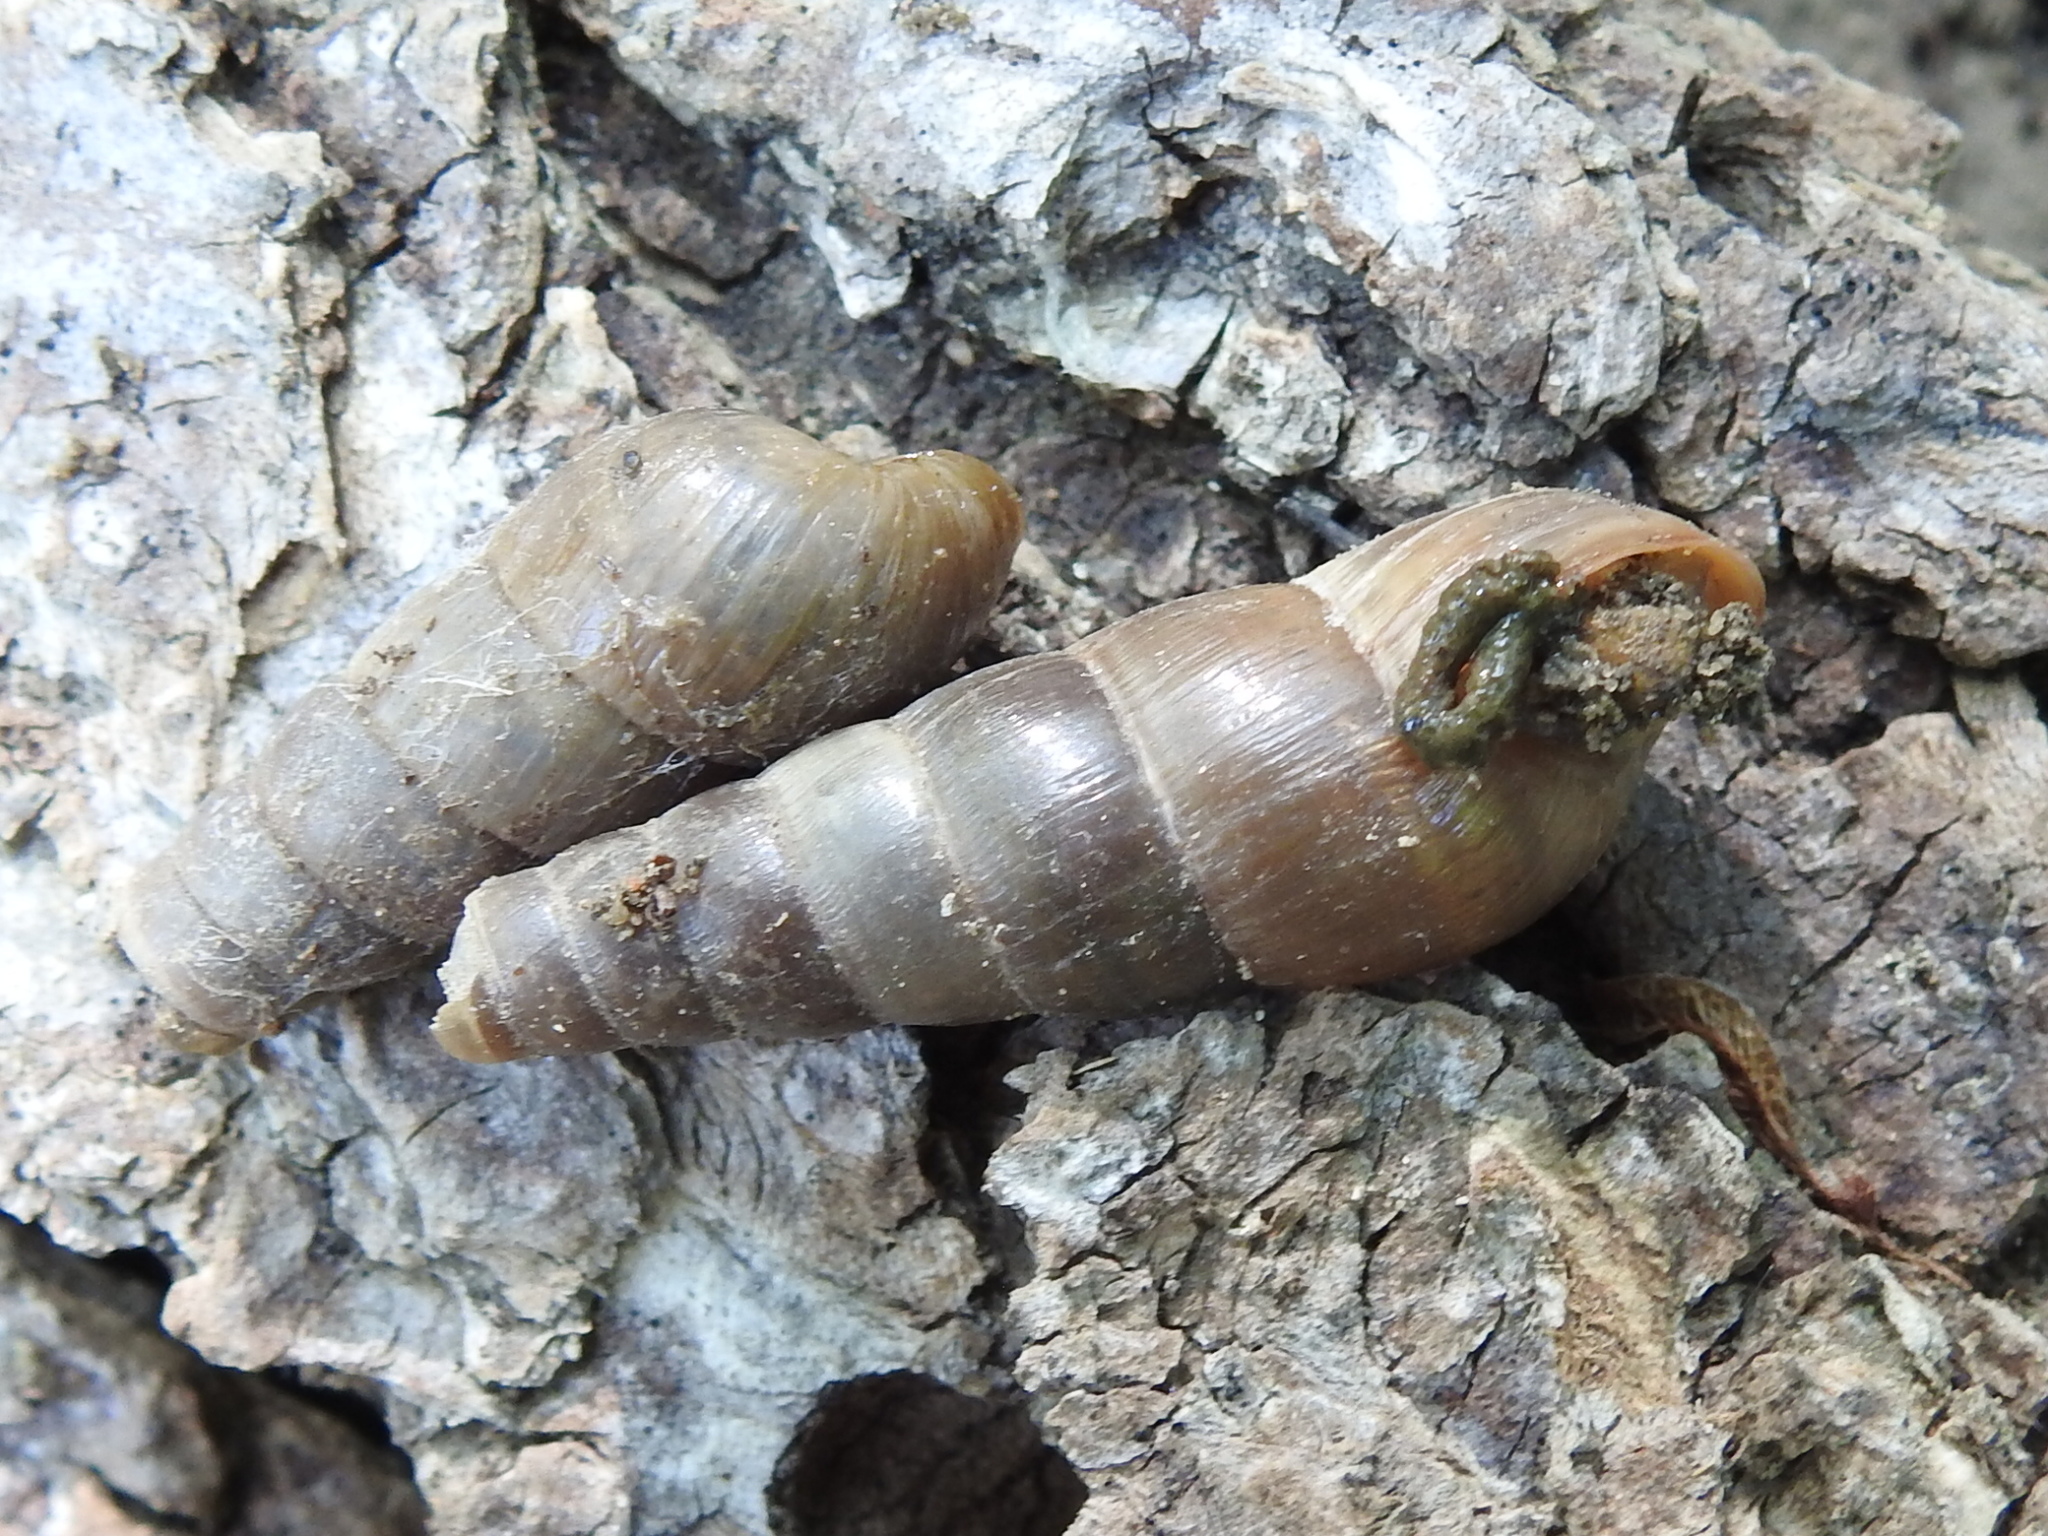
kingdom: Animalia
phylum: Mollusca
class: Gastropoda
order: Stylommatophora
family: Achatinidae
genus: Rumina
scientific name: Rumina decollata
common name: Decollate snail
